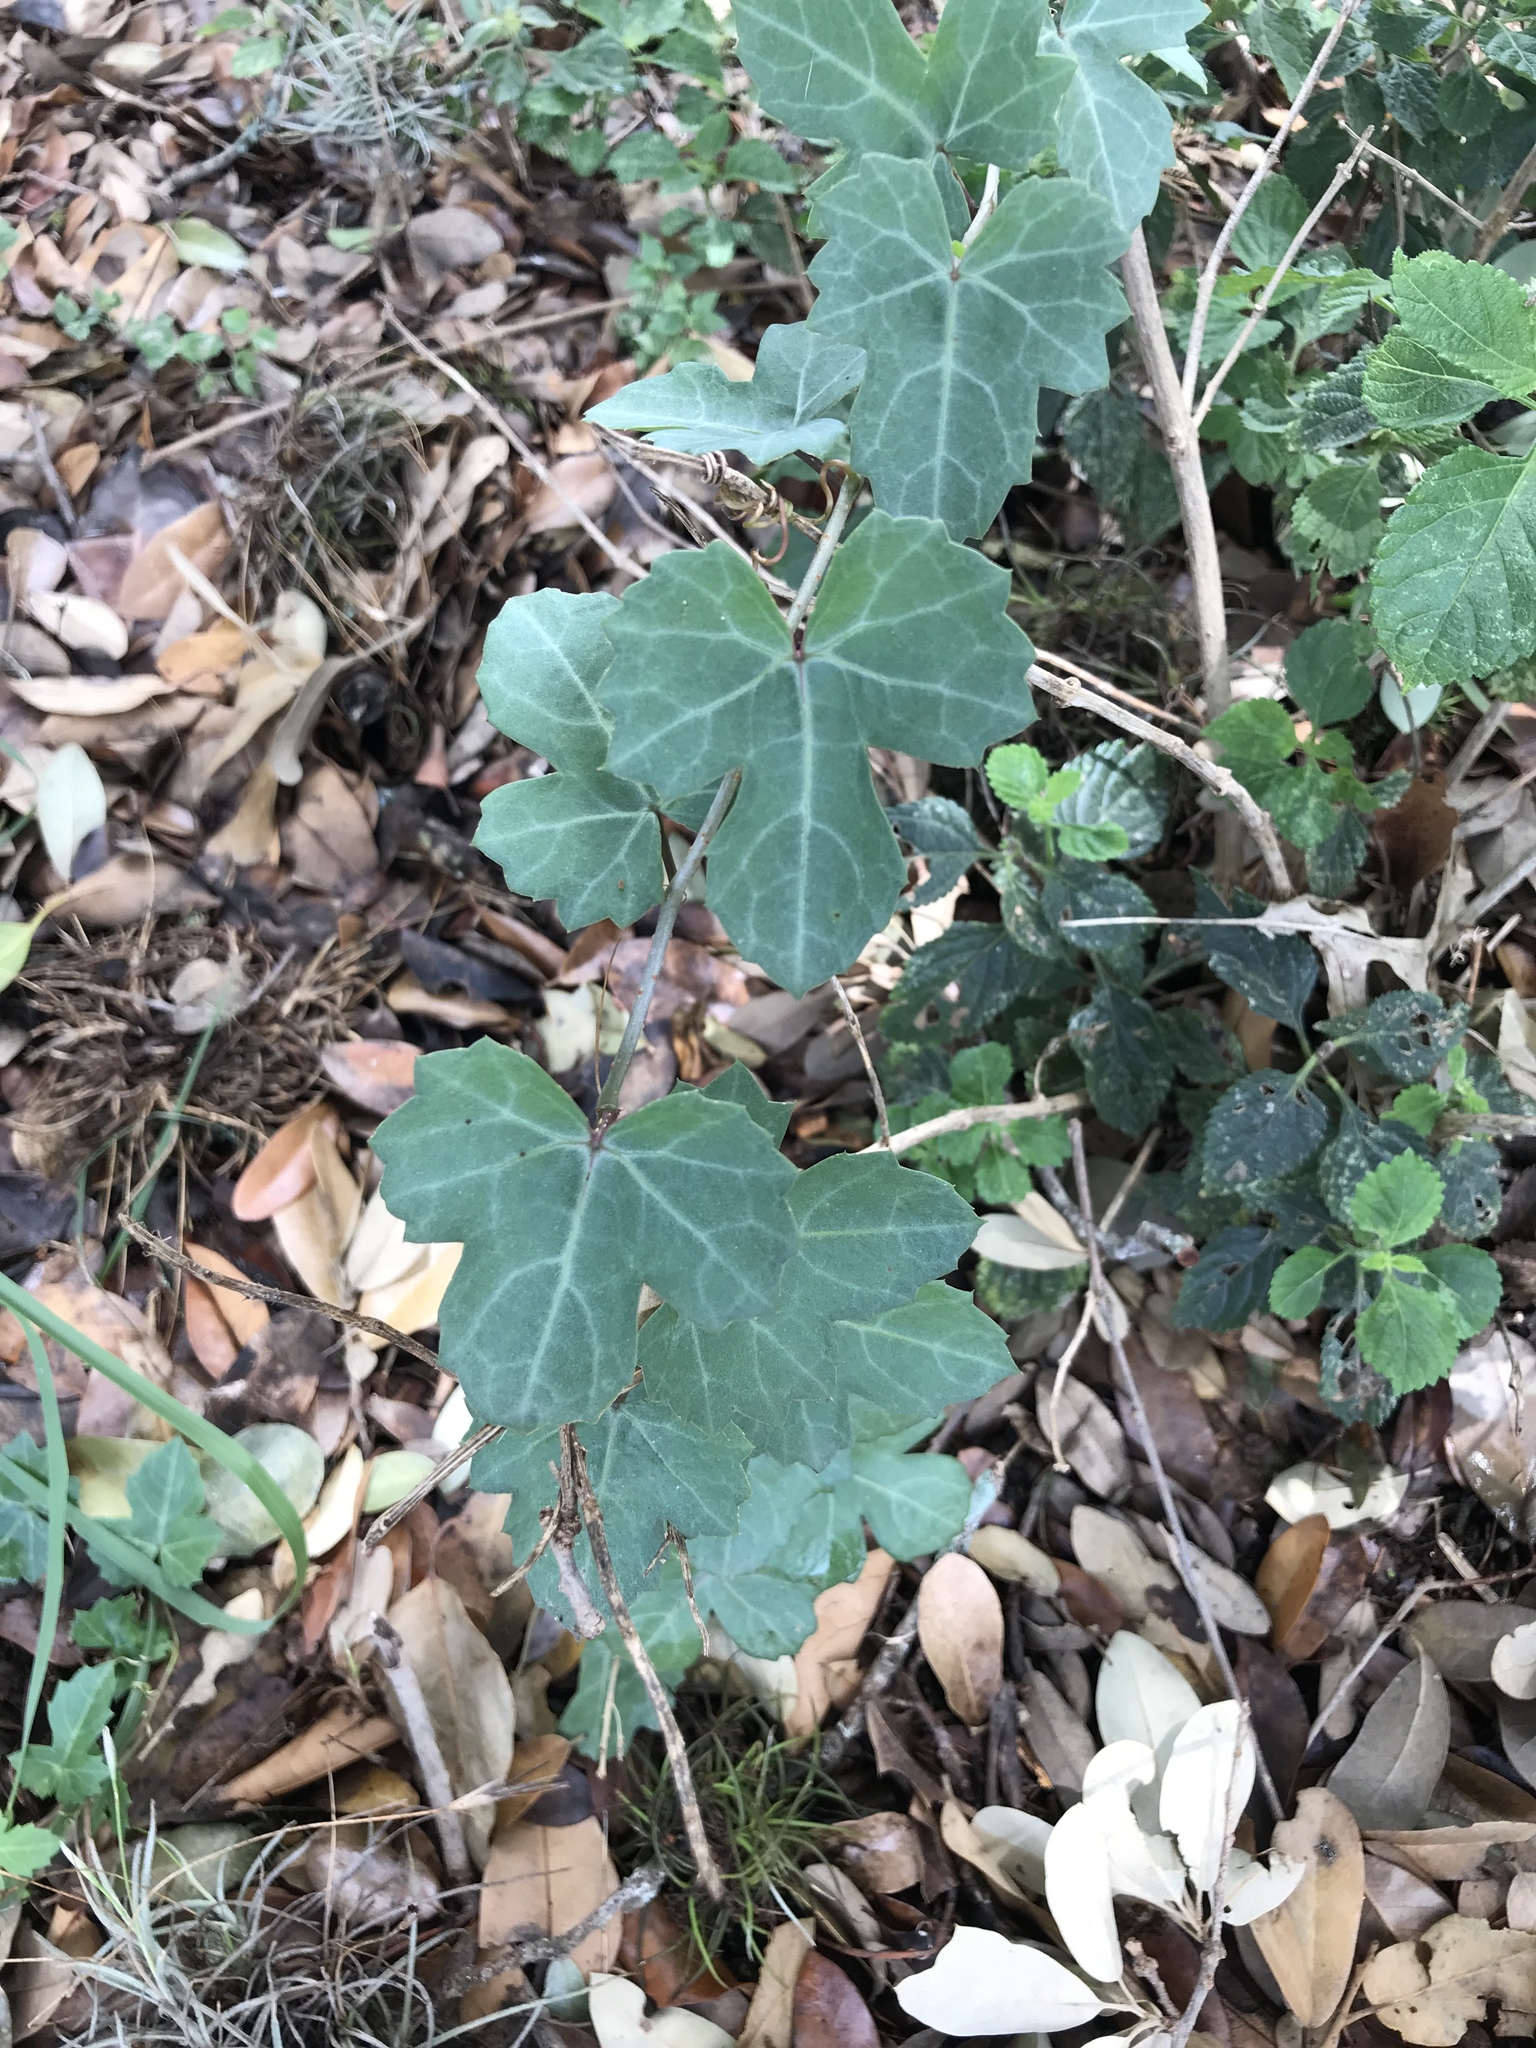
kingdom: Plantae
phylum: Tracheophyta
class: Magnoliopsida
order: Vitales
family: Vitaceae
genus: Cissus
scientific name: Cissus trifoliata
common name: Vine-sorrel
